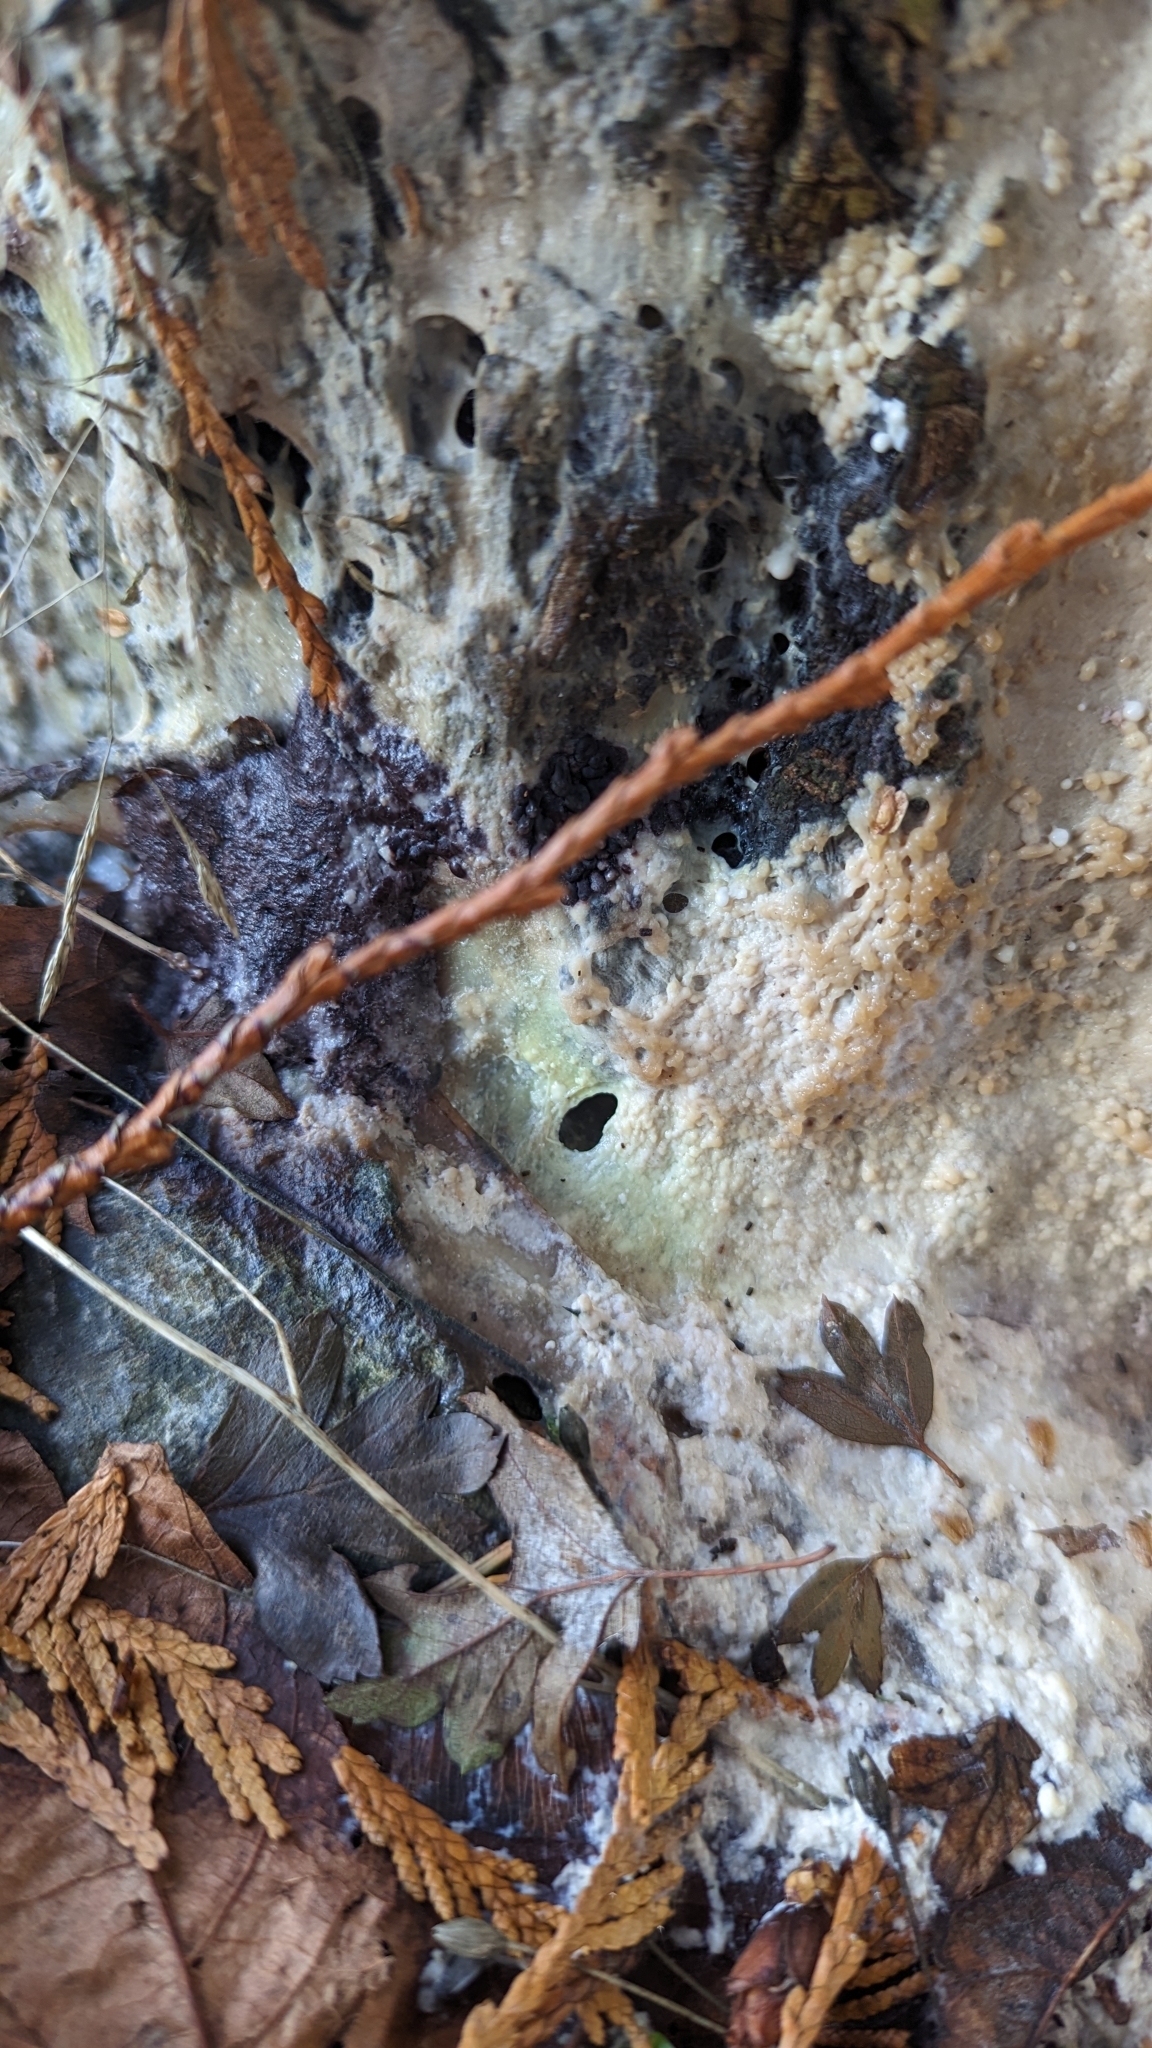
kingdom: Protozoa
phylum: Mycetozoa
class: Myxomycetes
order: Stemonitidales
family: Stemonitidaceae
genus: Brefeldia
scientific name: Brefeldia maxima
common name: Tapioca slime mold
